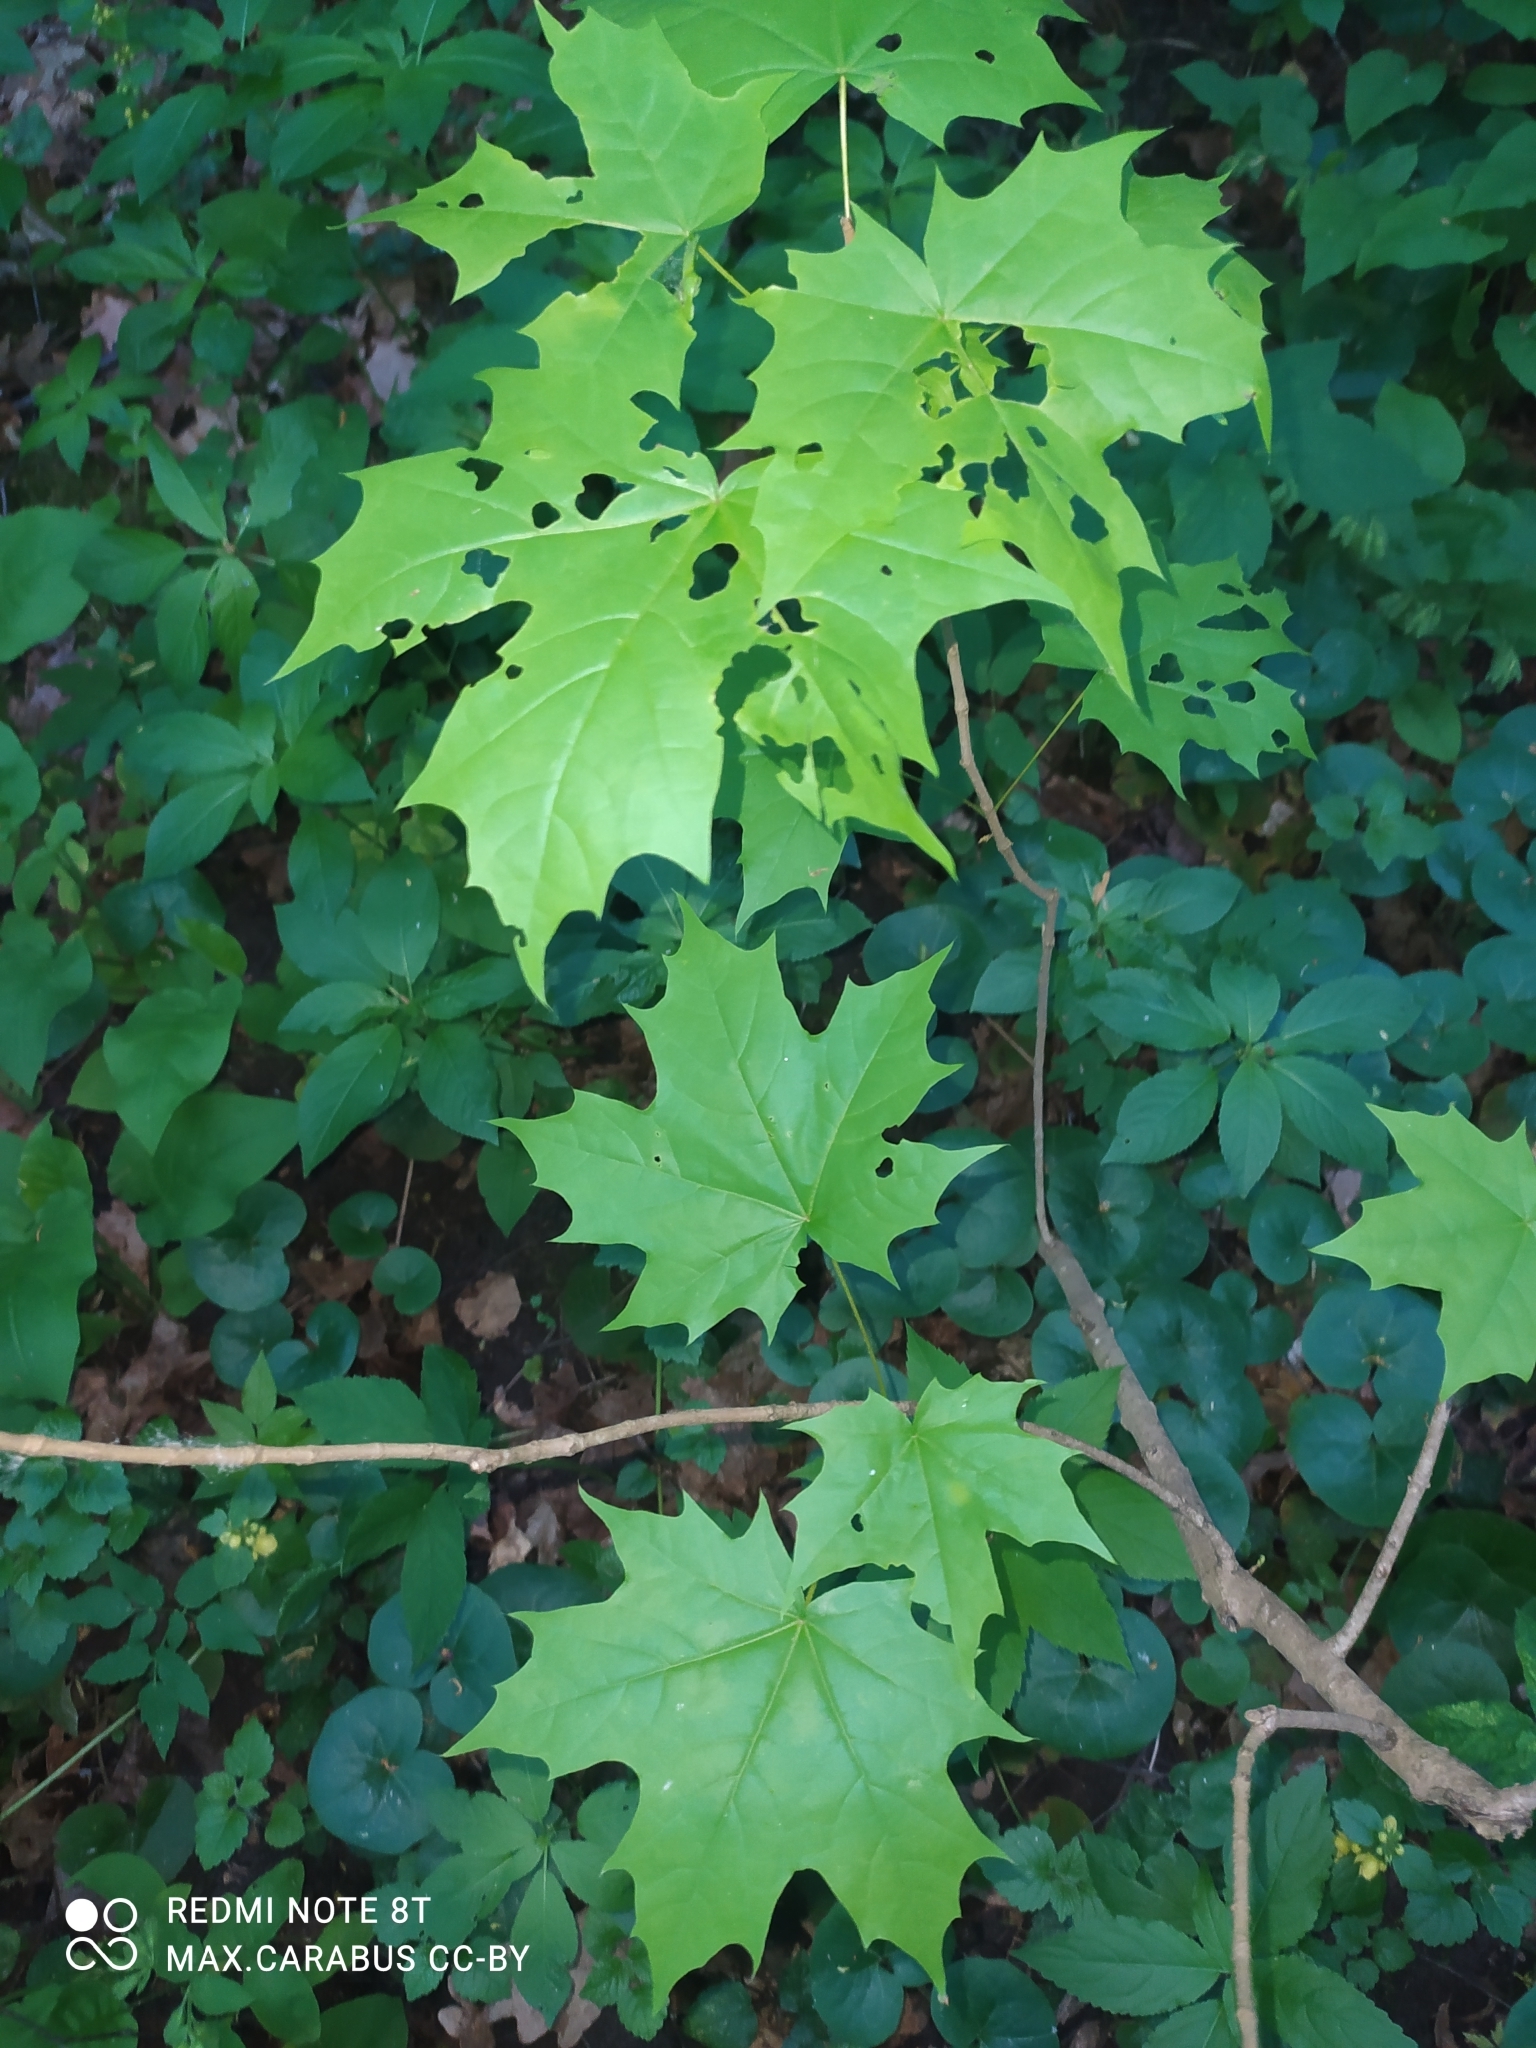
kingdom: Plantae
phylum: Tracheophyta
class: Magnoliopsida
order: Sapindales
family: Sapindaceae
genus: Acer
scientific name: Acer platanoides
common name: Norway maple
